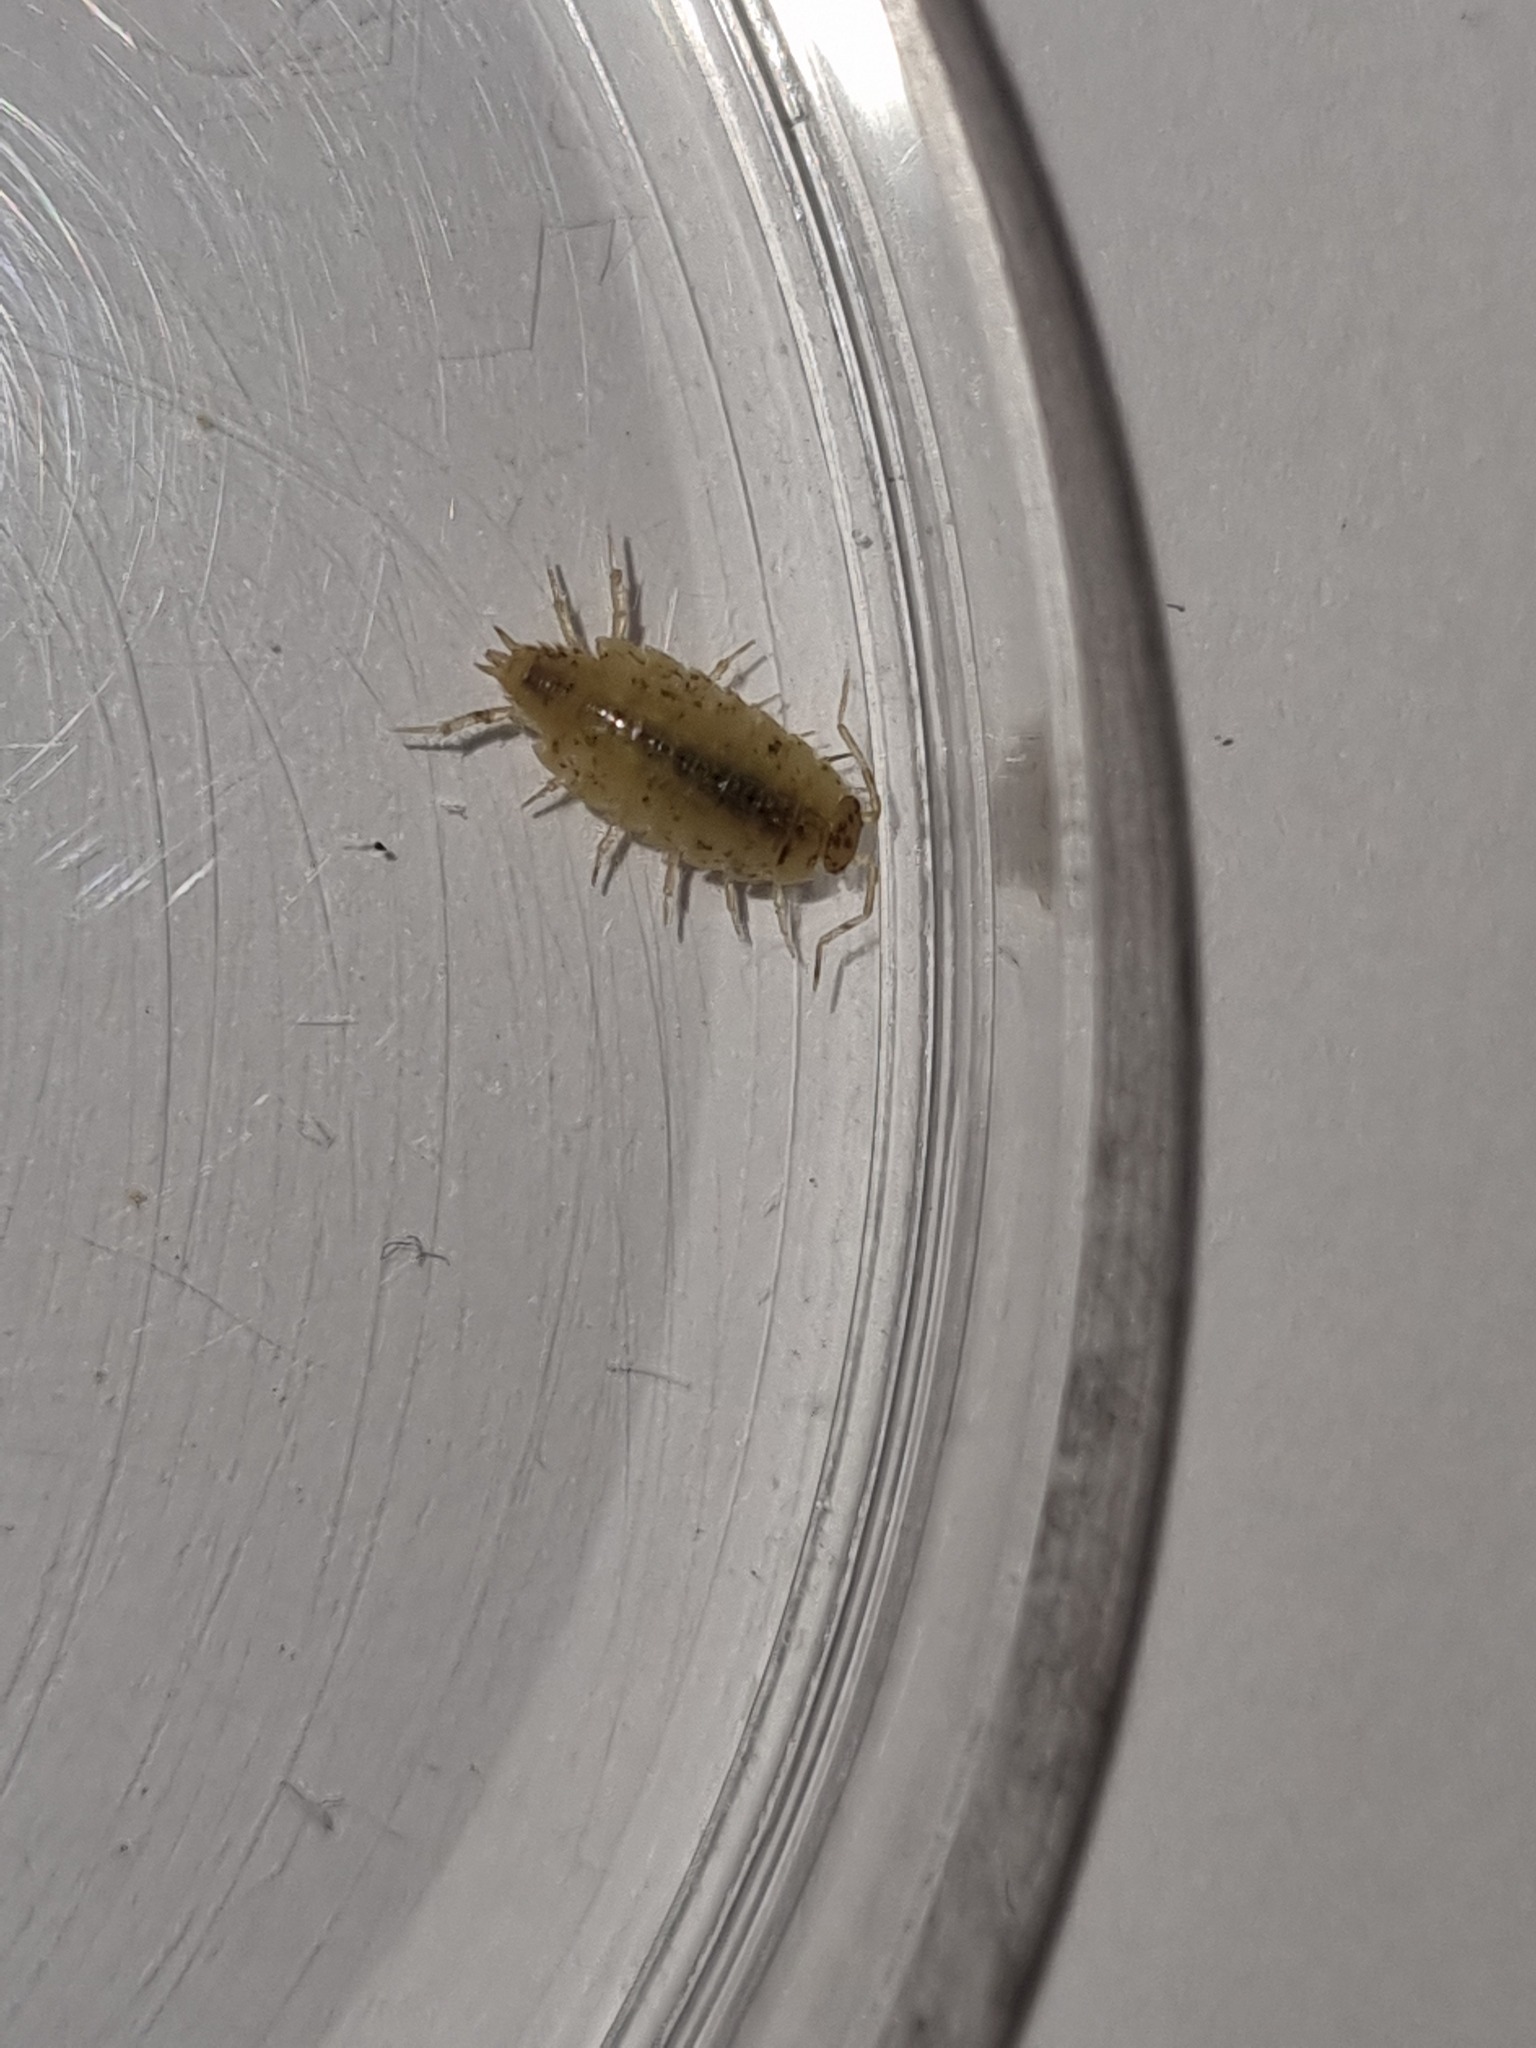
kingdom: Animalia
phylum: Arthropoda
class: Malacostraca
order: Isopoda
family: Philosciidae
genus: Philoscia
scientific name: Philoscia muscorum
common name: Common striped woodlouse
